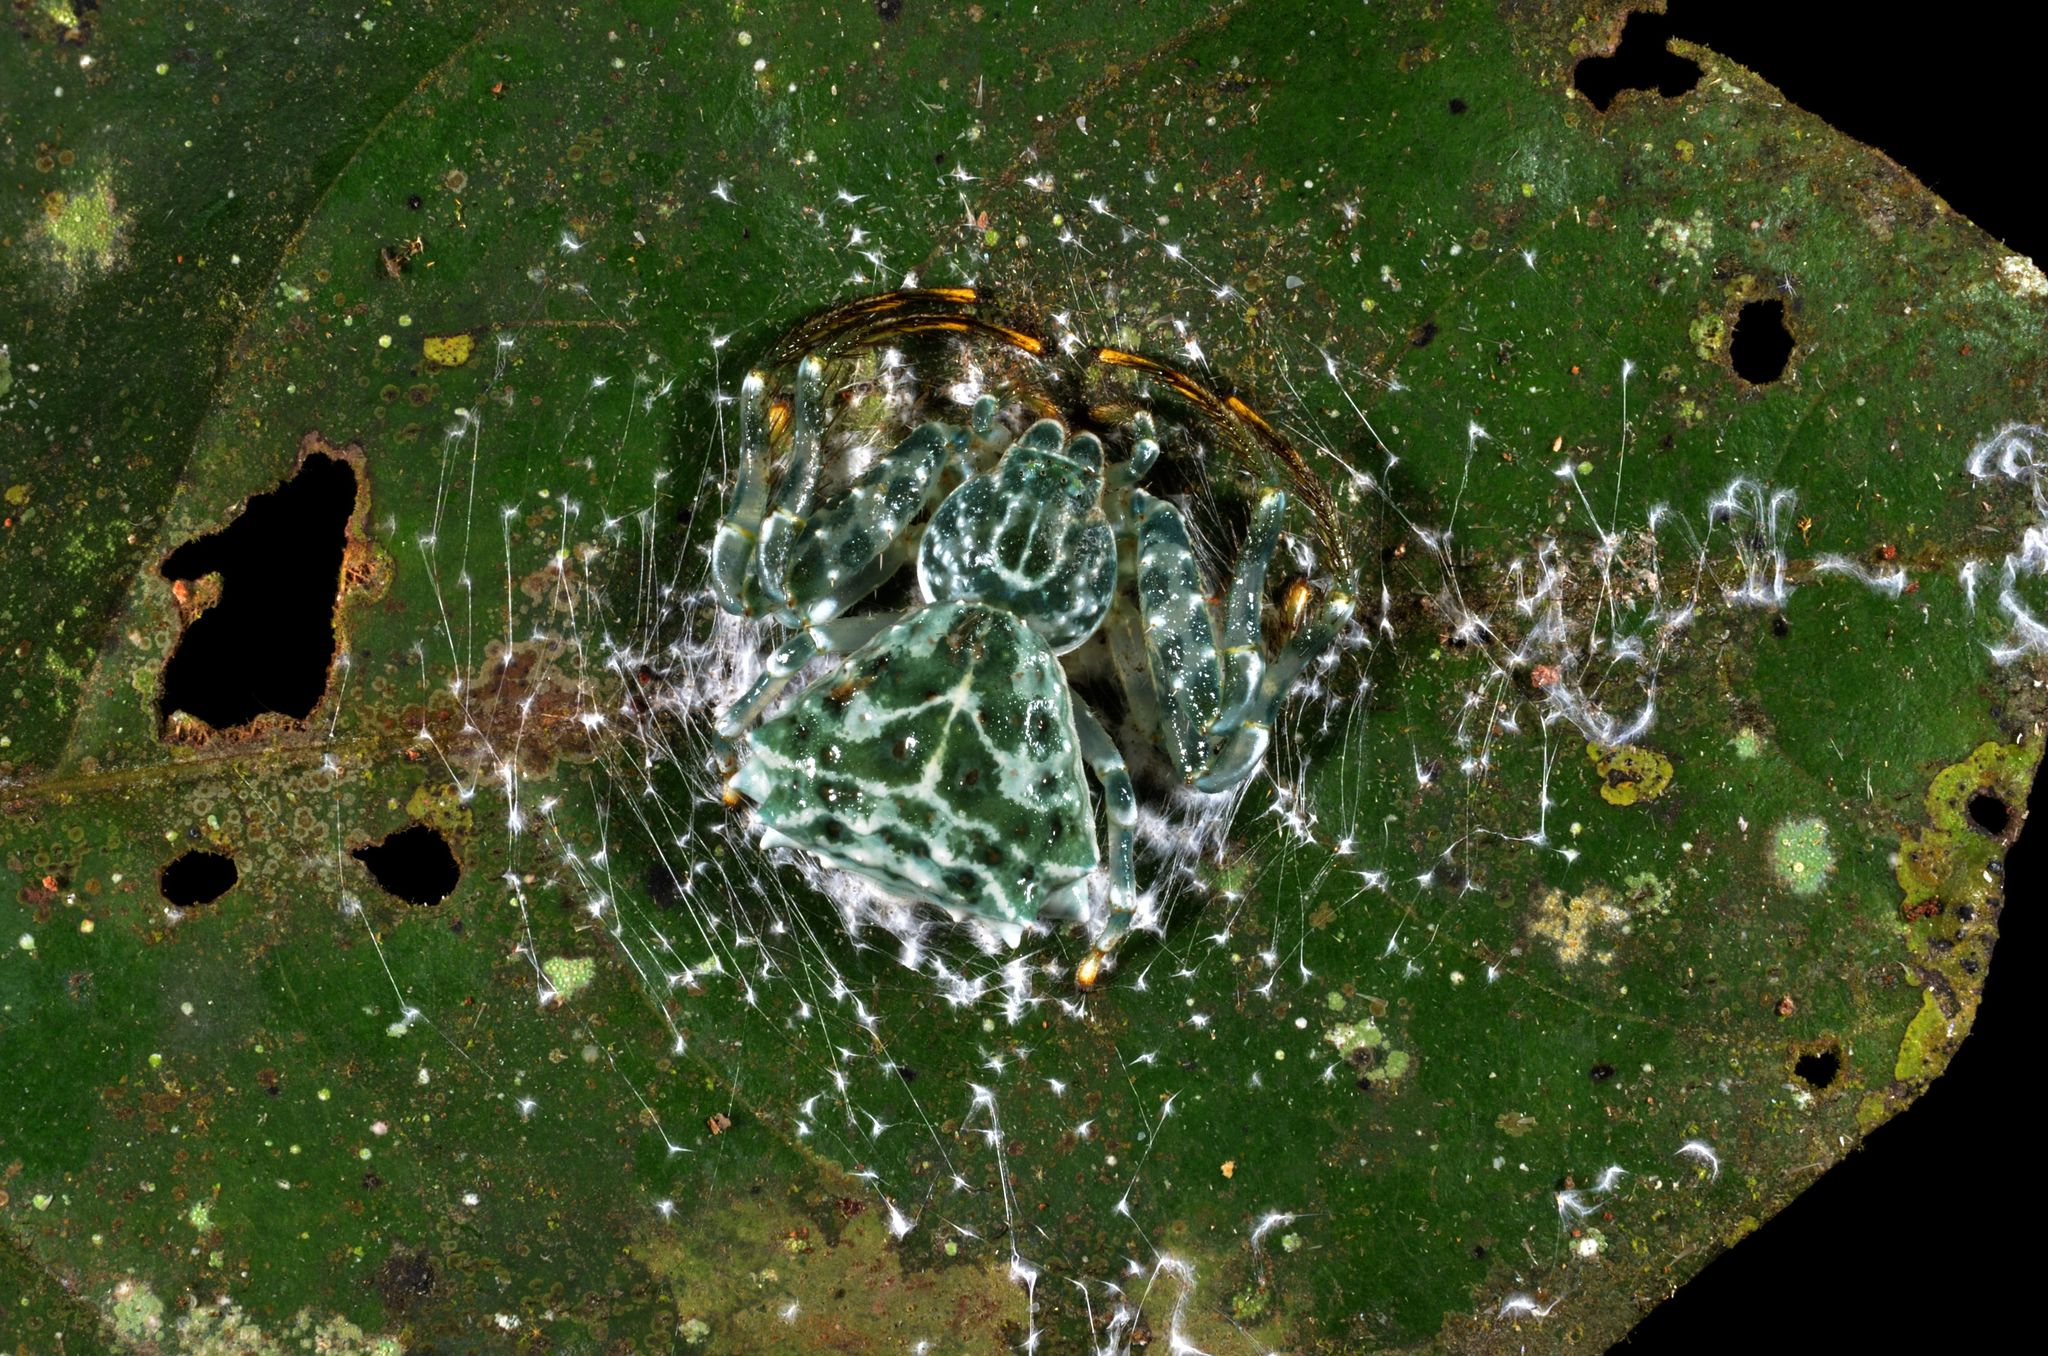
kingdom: Animalia
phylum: Arthropoda
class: Arachnida
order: Araneae
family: Thomisidae
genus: Phrynarachne
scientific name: Phrynarachne dreepy
